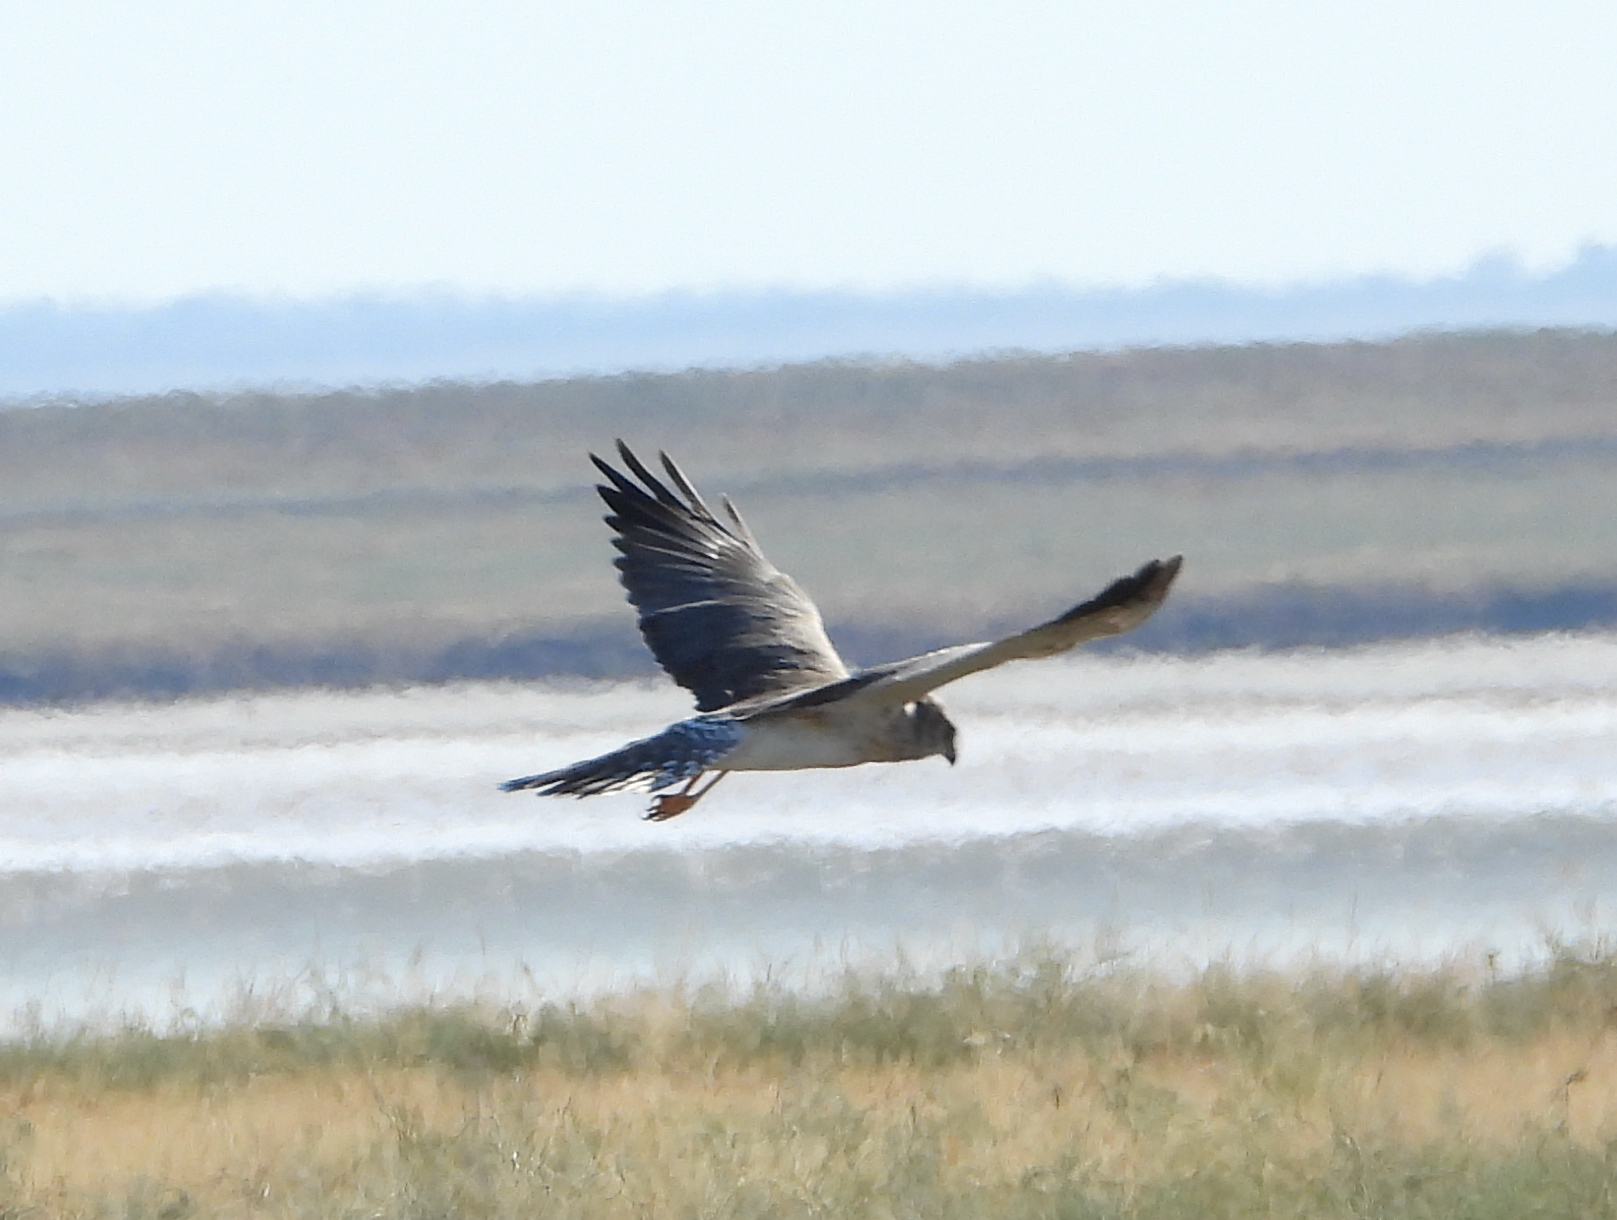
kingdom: Animalia
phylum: Chordata
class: Aves
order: Accipitriformes
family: Accipitridae
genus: Circus
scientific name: Circus macrourus
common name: Pallid harrier
